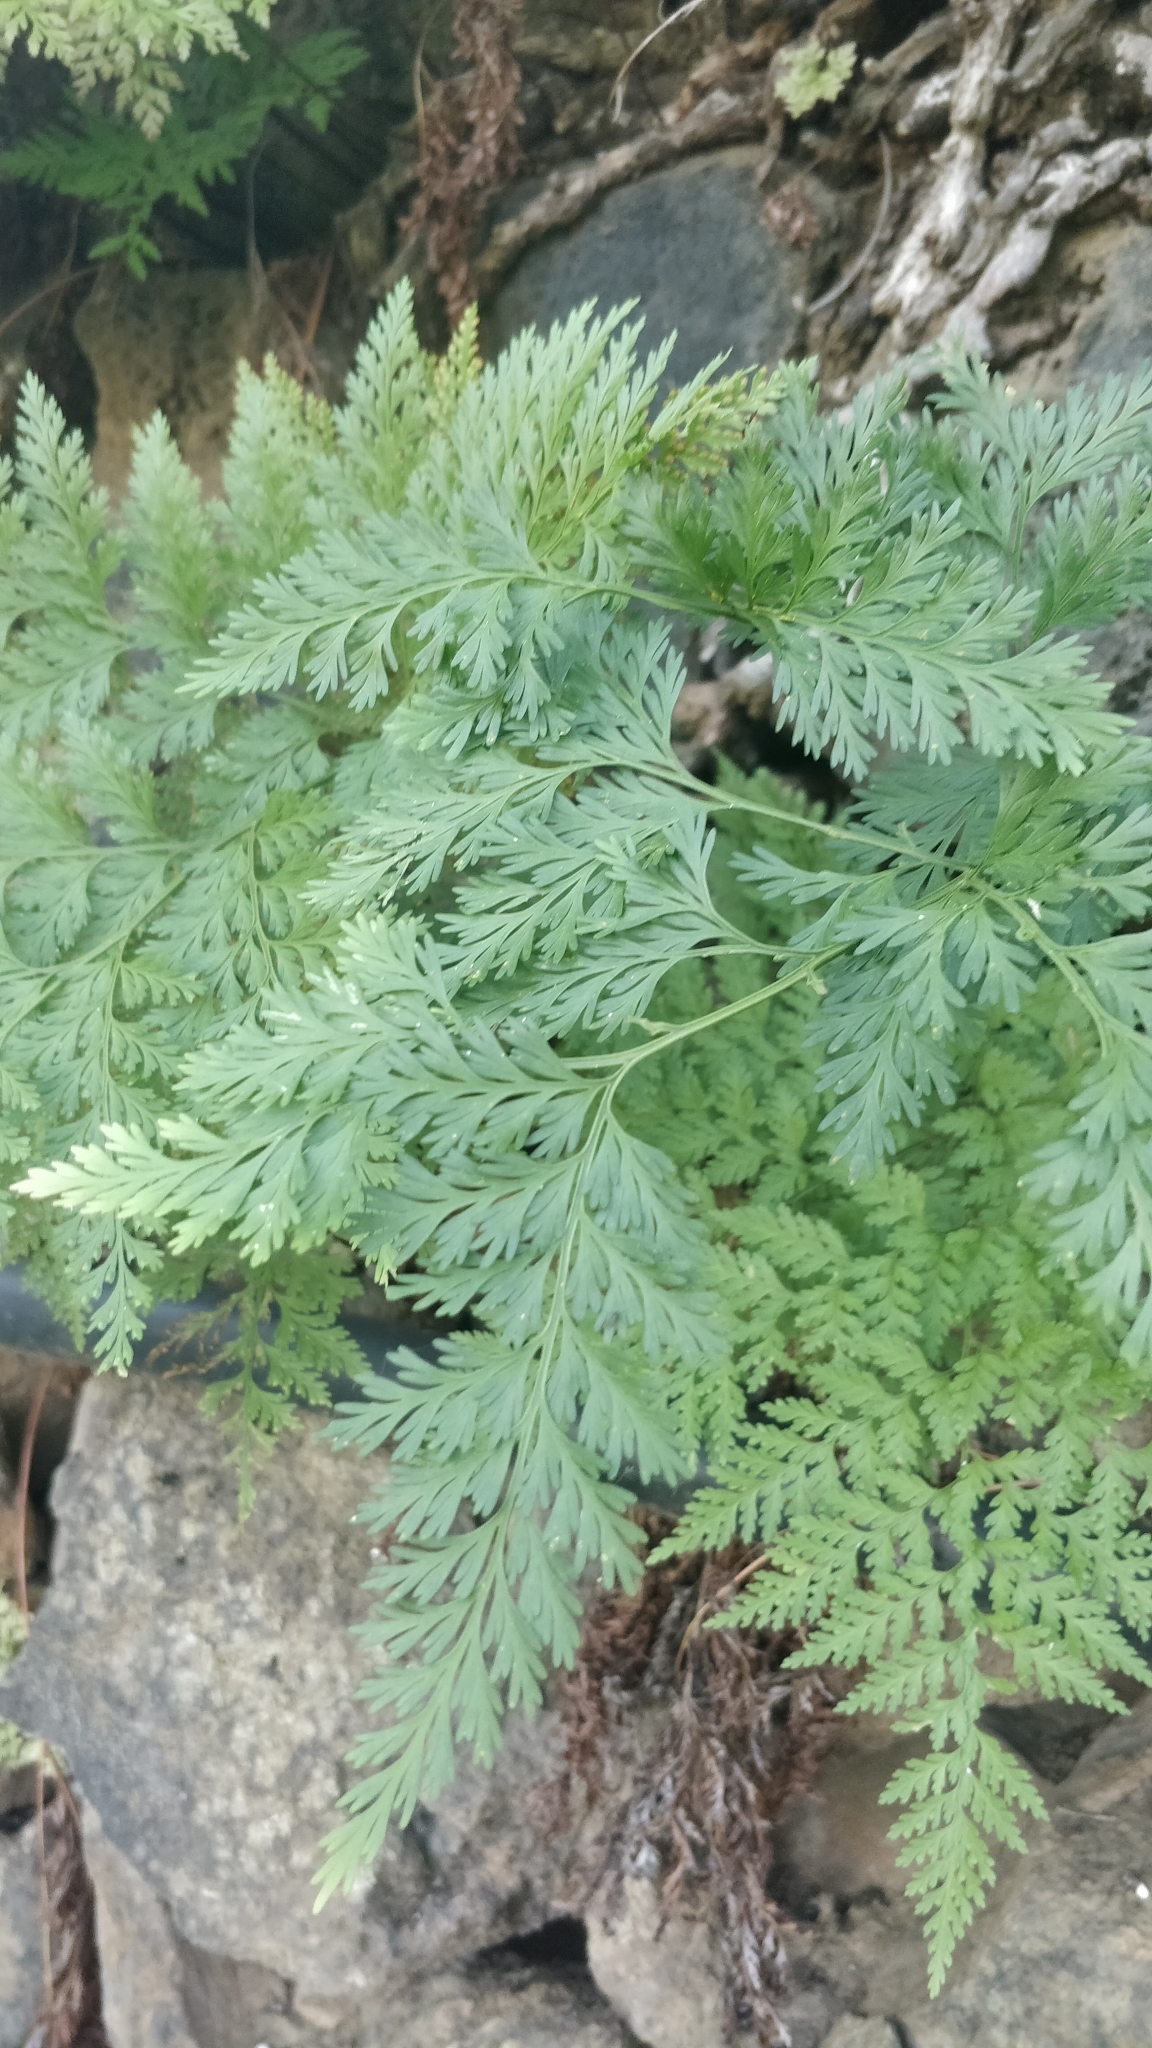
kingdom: Plantae
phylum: Tracheophyta
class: Polypodiopsida
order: Polypodiales
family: Davalliaceae
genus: Davallia
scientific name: Davallia canariensis
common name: Hare's-foot fern
